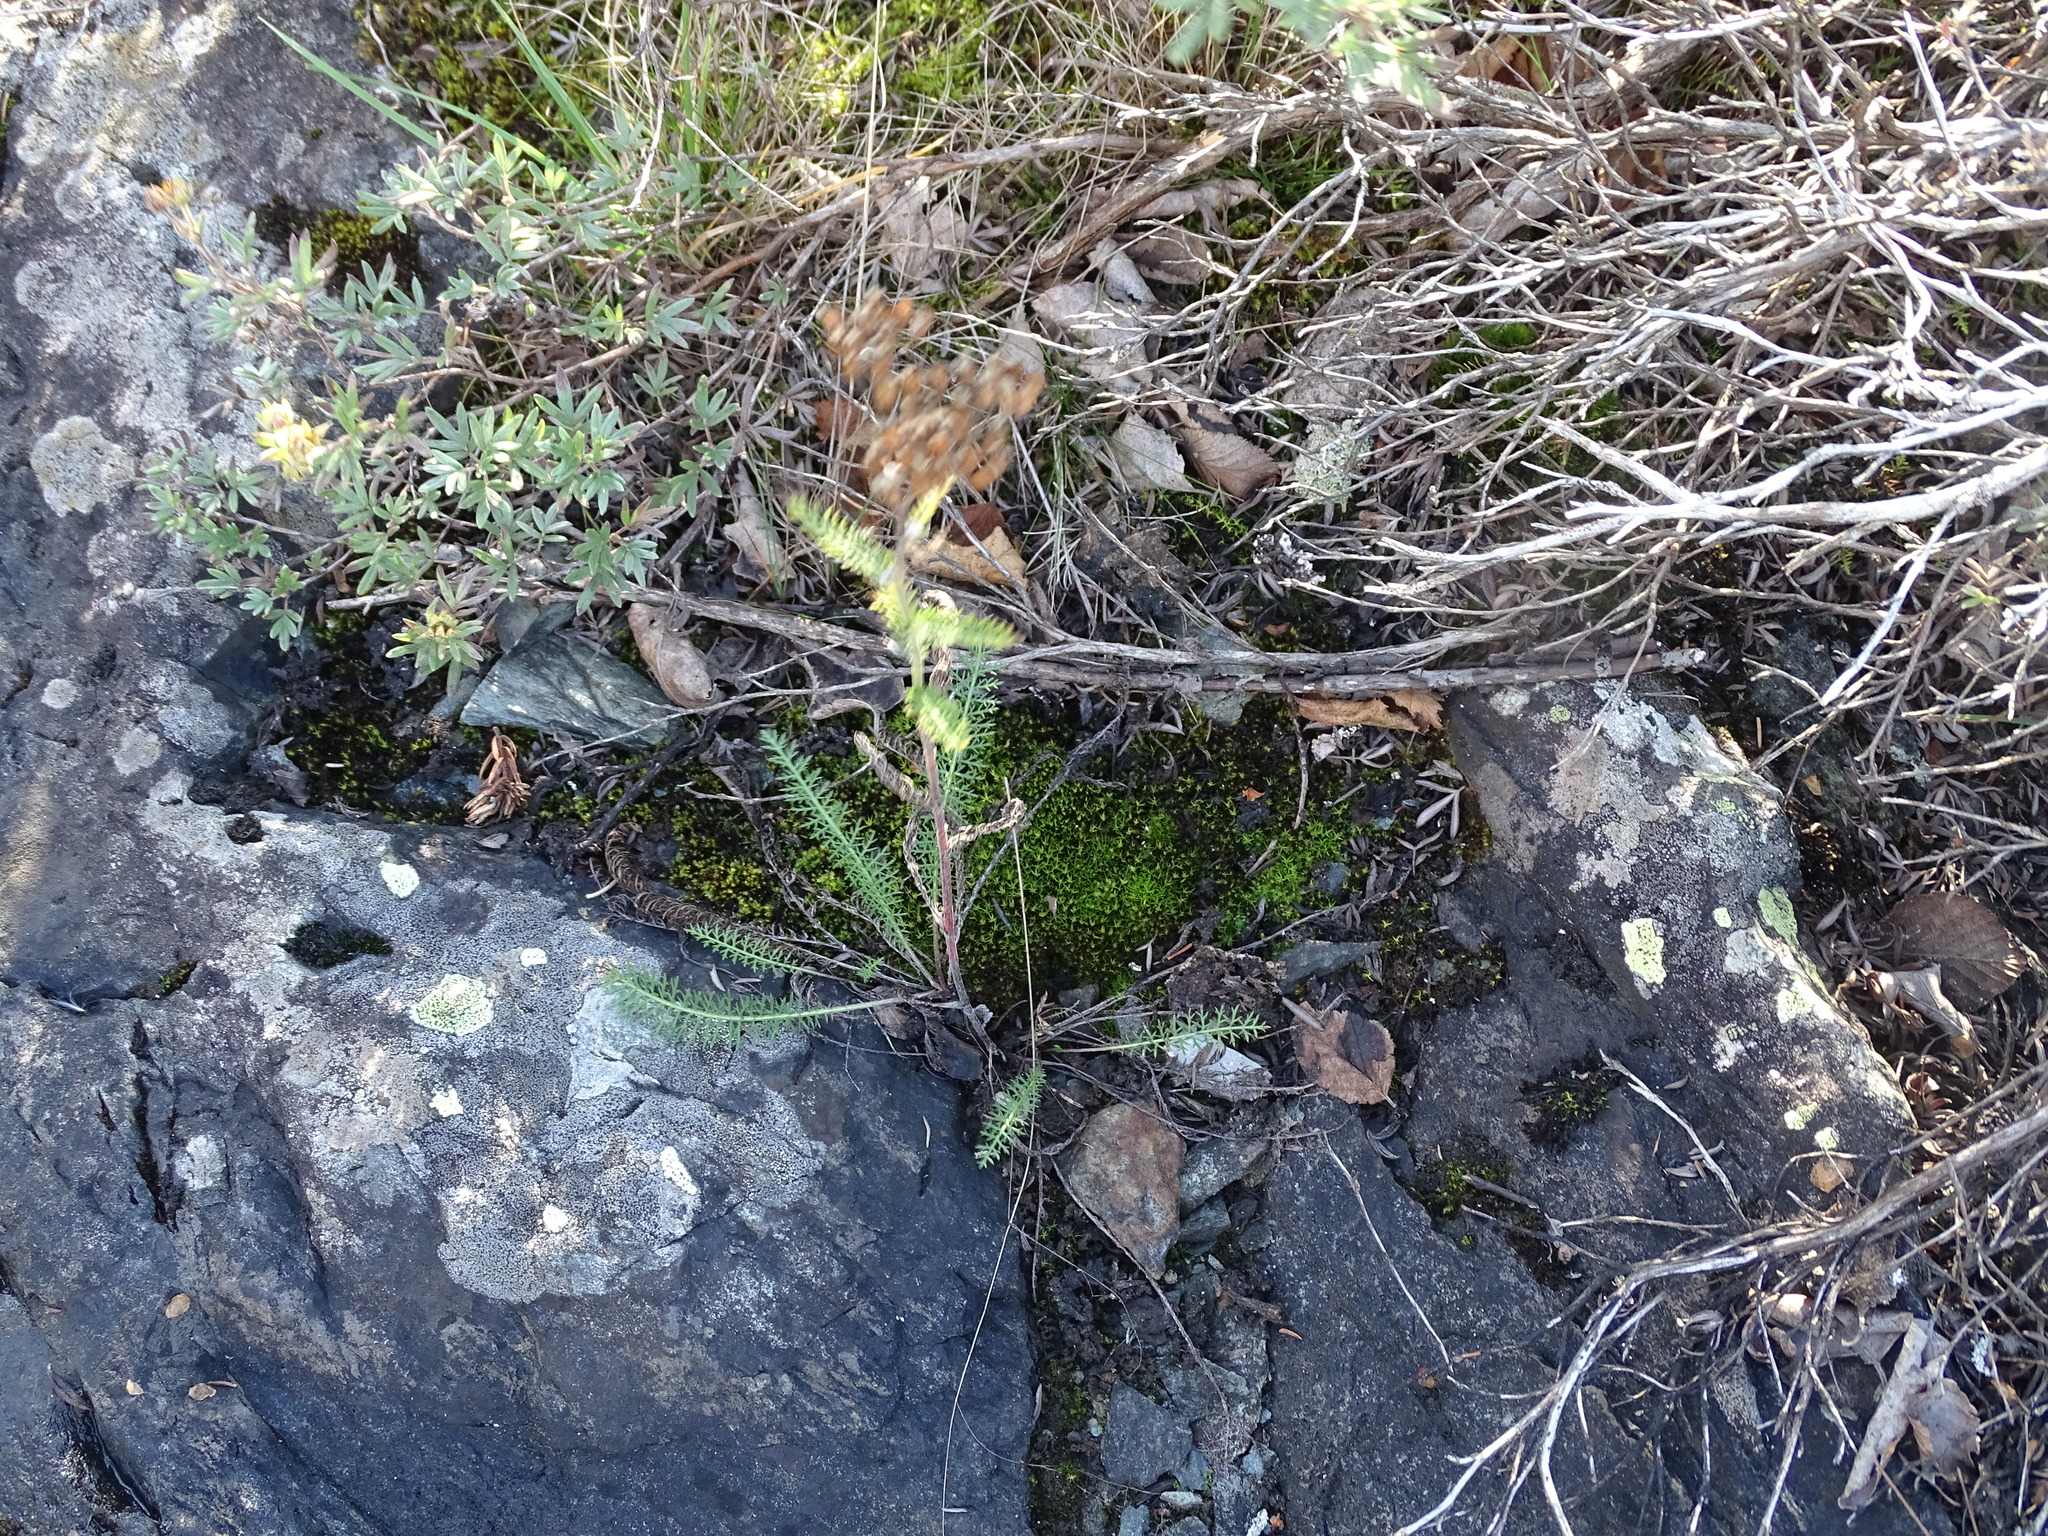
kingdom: Plantae
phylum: Tracheophyta
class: Magnoliopsida
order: Asterales
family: Asteraceae
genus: Achillea
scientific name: Achillea millefolium
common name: Yarrow
